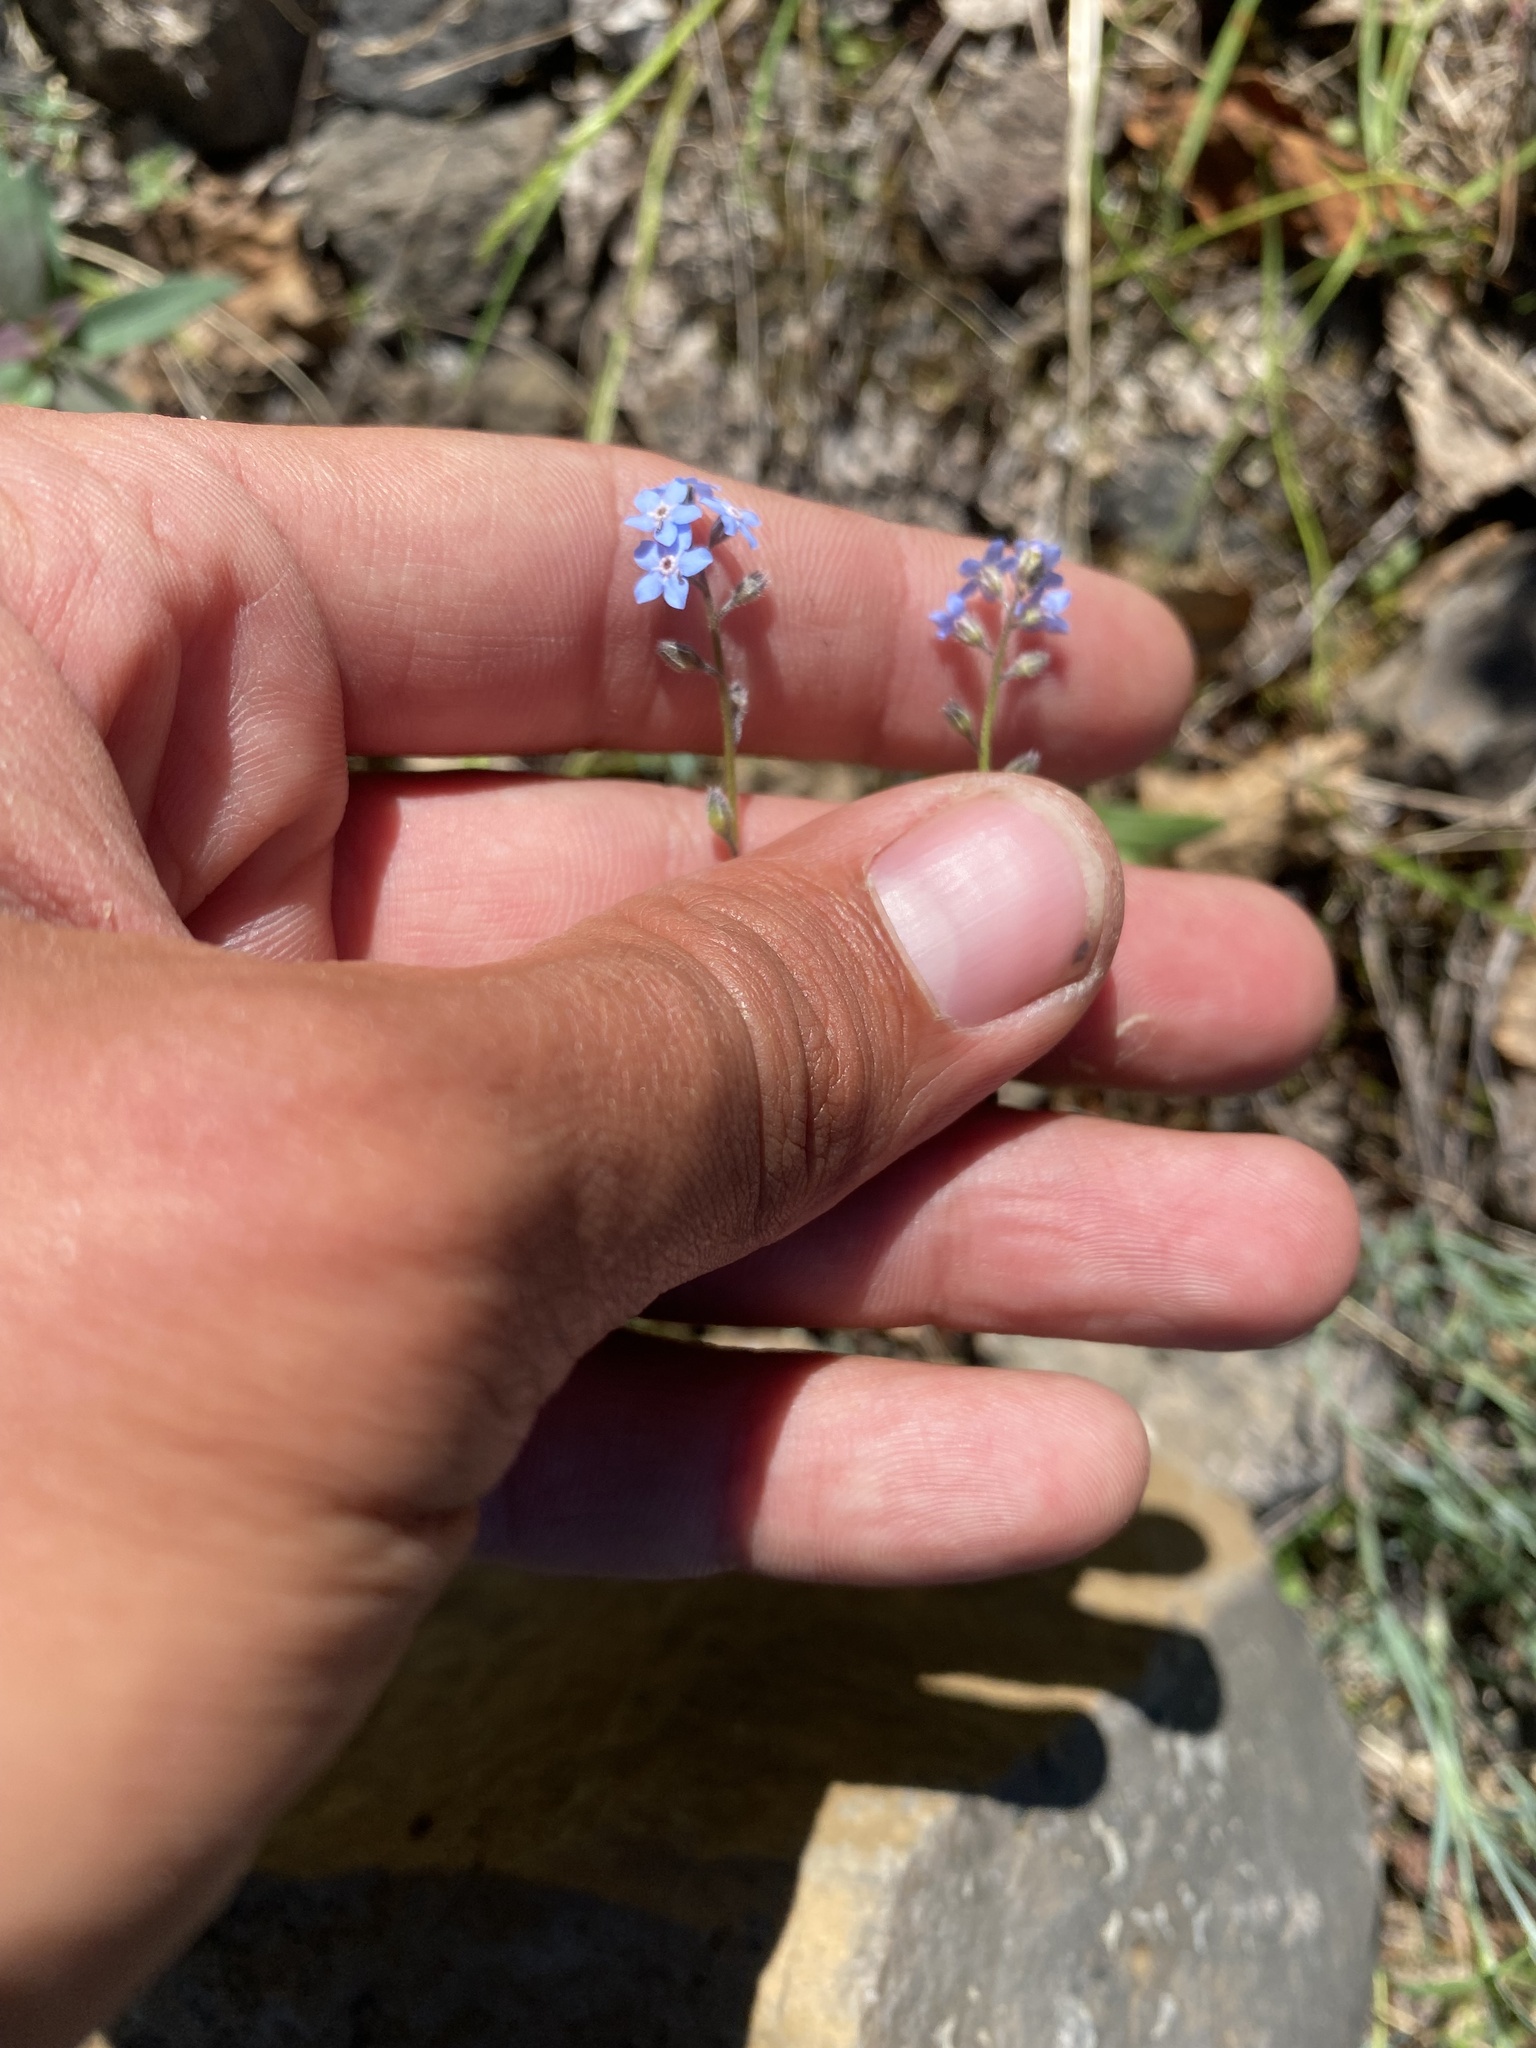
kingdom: Plantae
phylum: Tracheophyta
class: Magnoliopsida
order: Boraginales
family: Boraginaceae
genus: Myosotis
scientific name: Myosotis asiatica
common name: Asian forget-me-not
